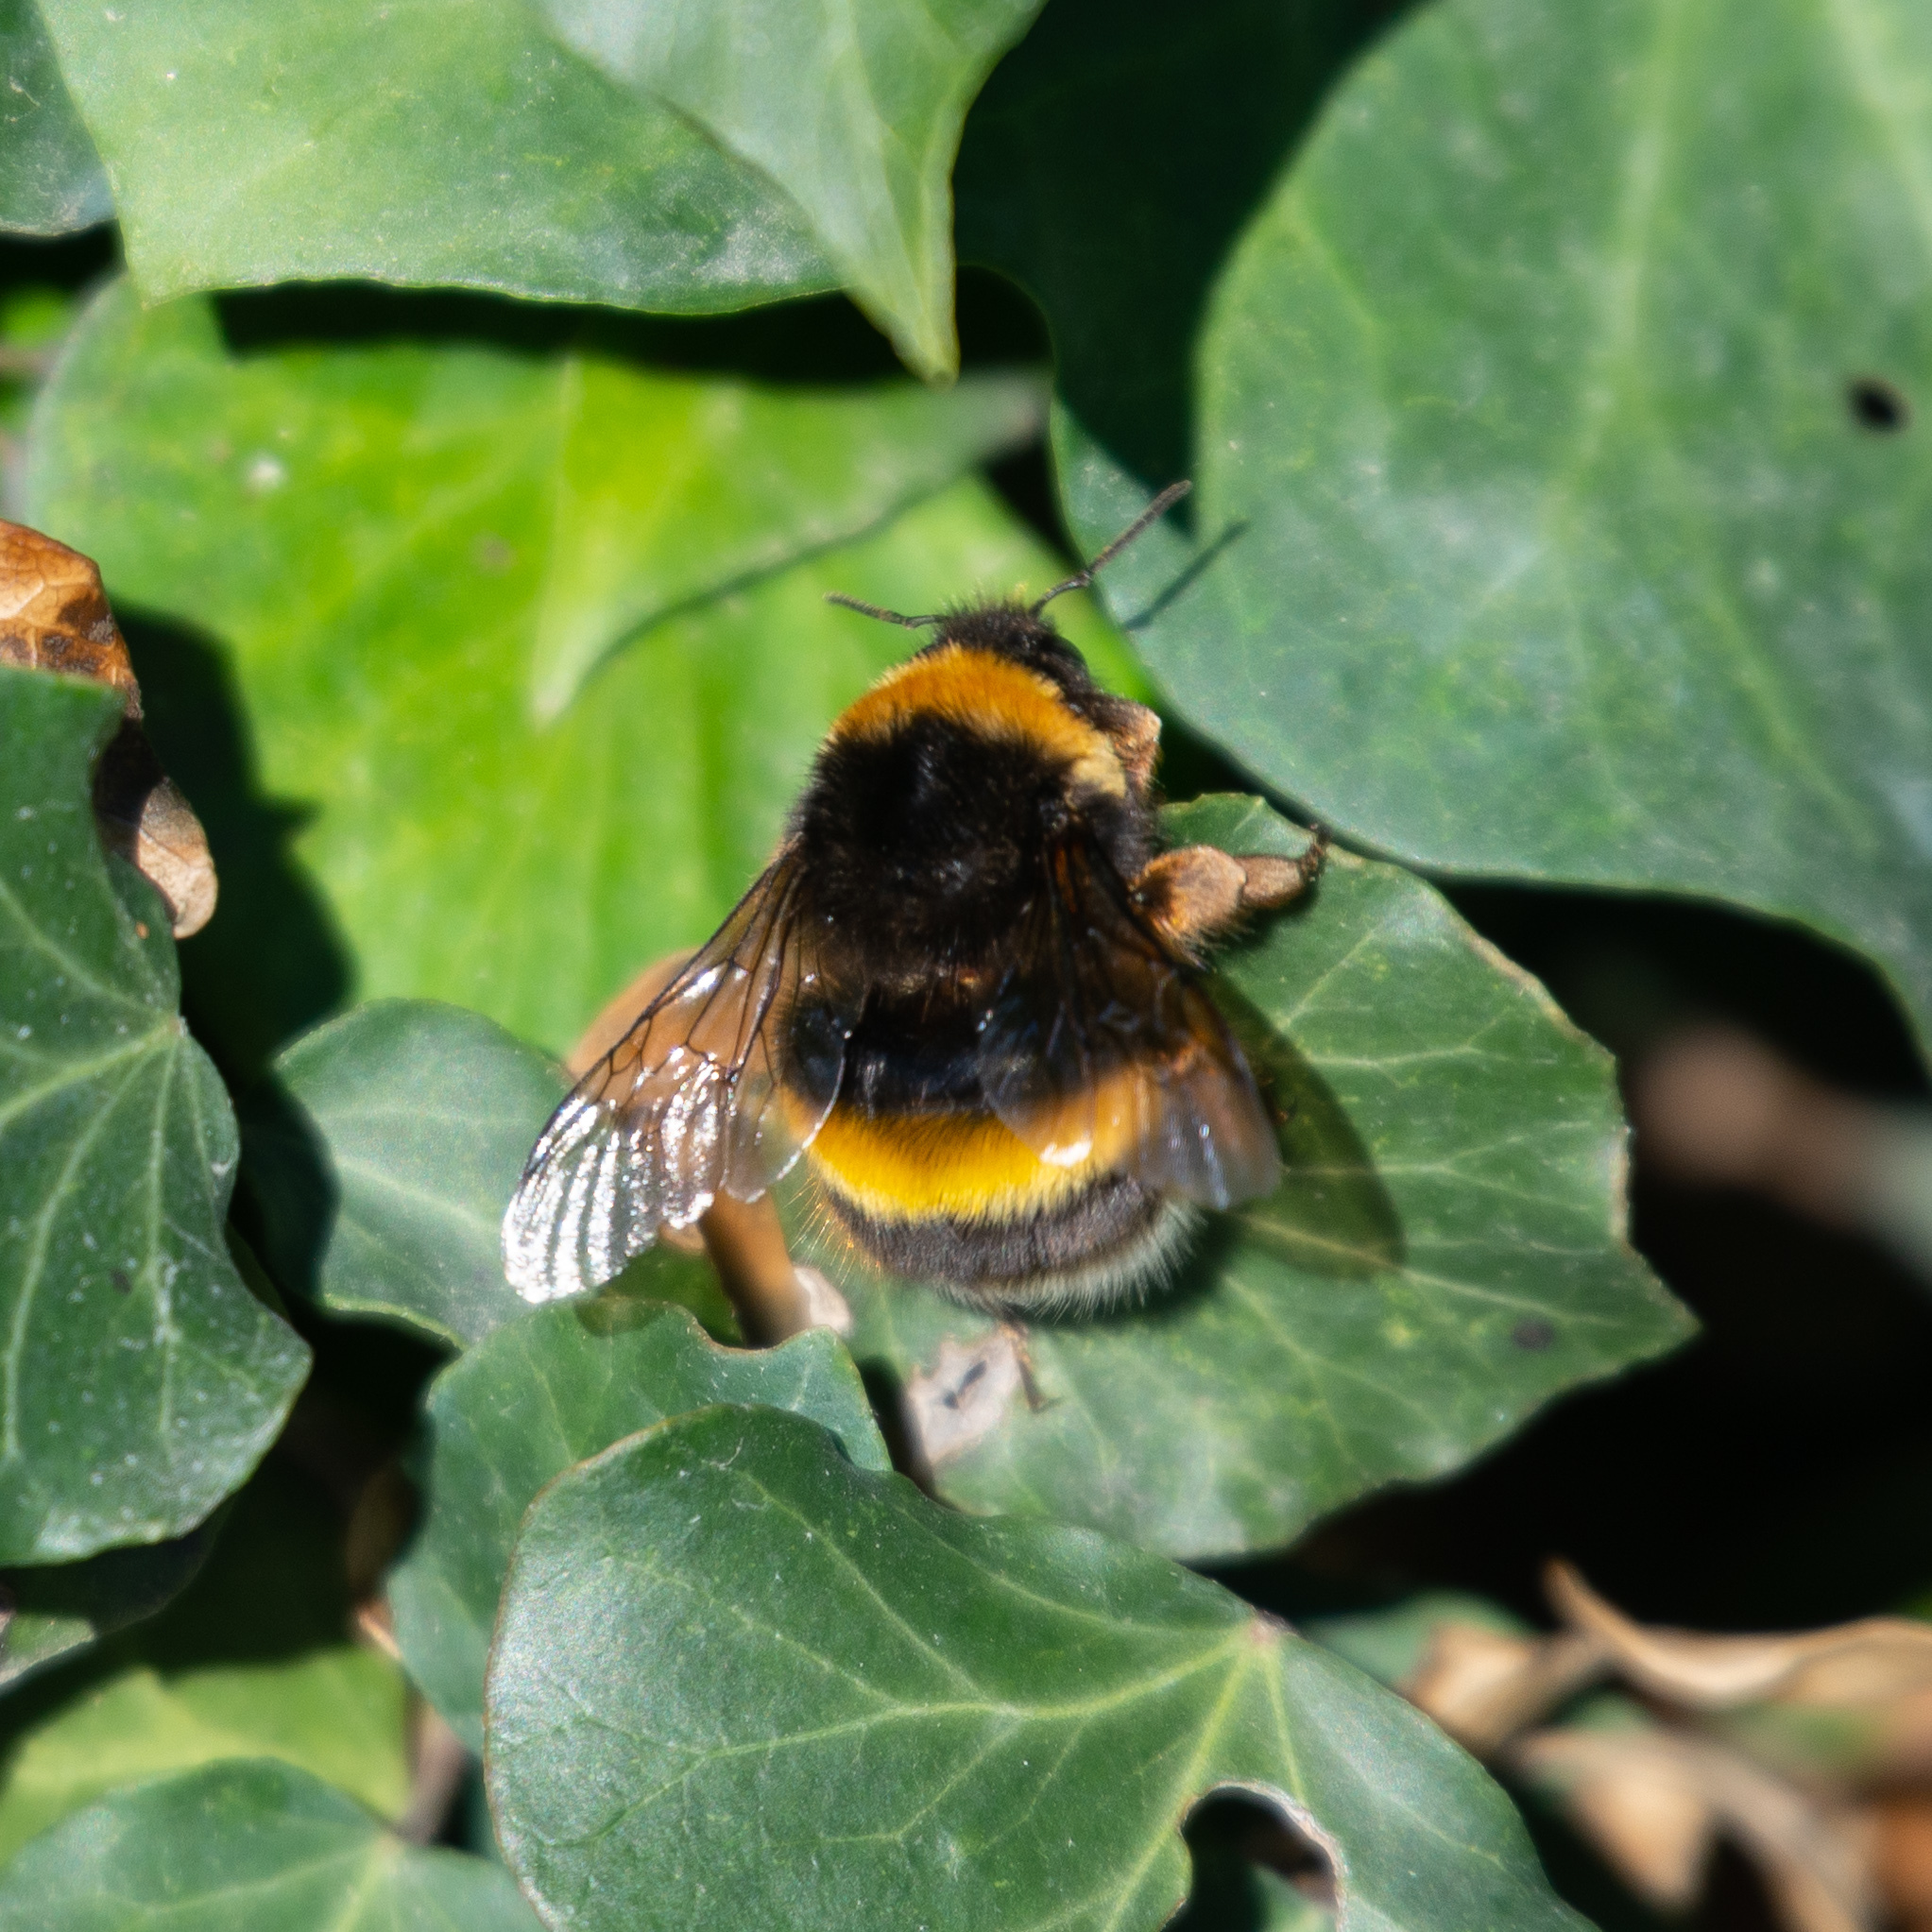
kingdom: Animalia
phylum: Arthropoda
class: Insecta
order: Hymenoptera
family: Apidae
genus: Bombus
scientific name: Bombus terrestris
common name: Buff-tailed bumblebee
